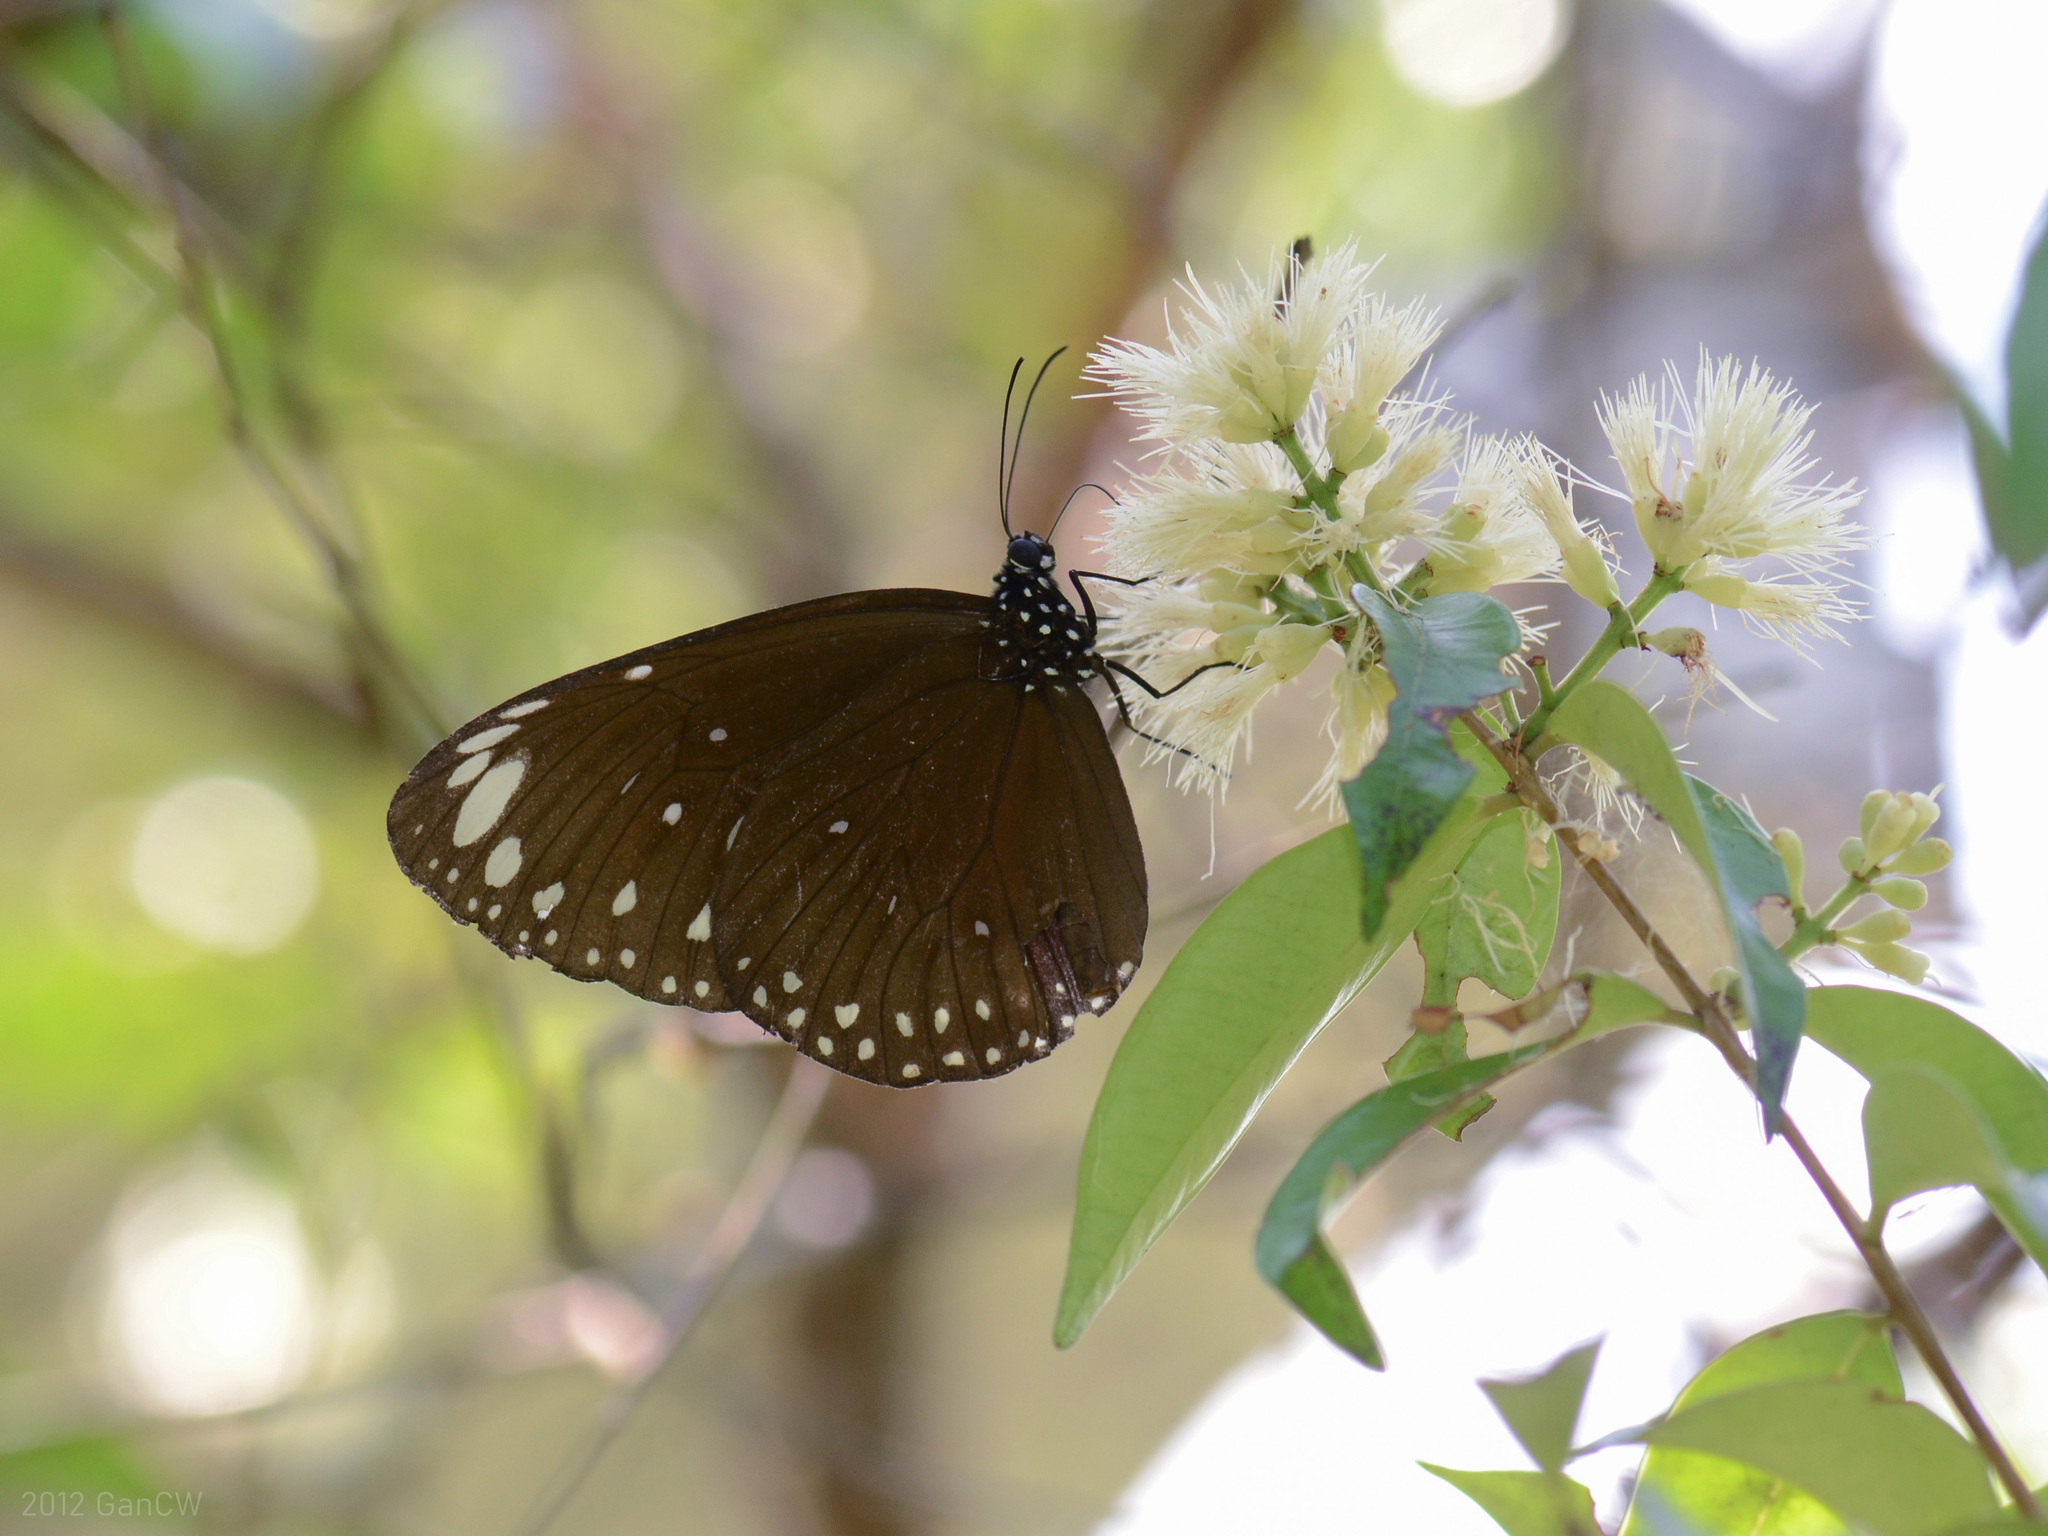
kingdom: Animalia
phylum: Arthropoda
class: Insecta
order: Lepidoptera
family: Nymphalidae
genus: Euploea
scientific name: Euploea crameri
